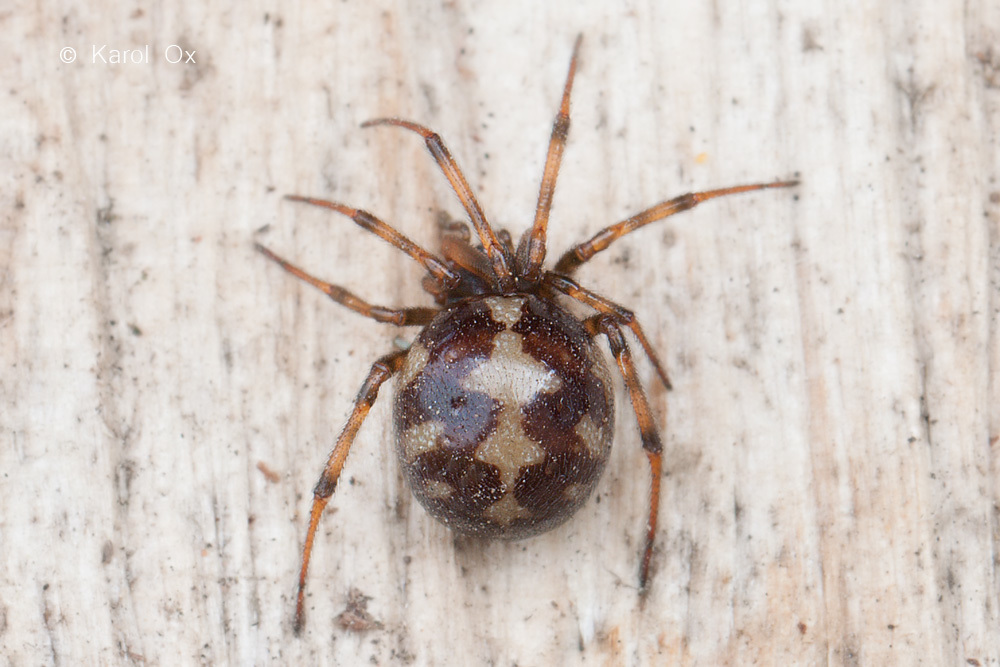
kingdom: Animalia
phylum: Arthropoda
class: Arachnida
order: Araneae
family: Theridiidae
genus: Steatoda
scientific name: Steatoda triangulosa
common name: Triangulate bud spider
